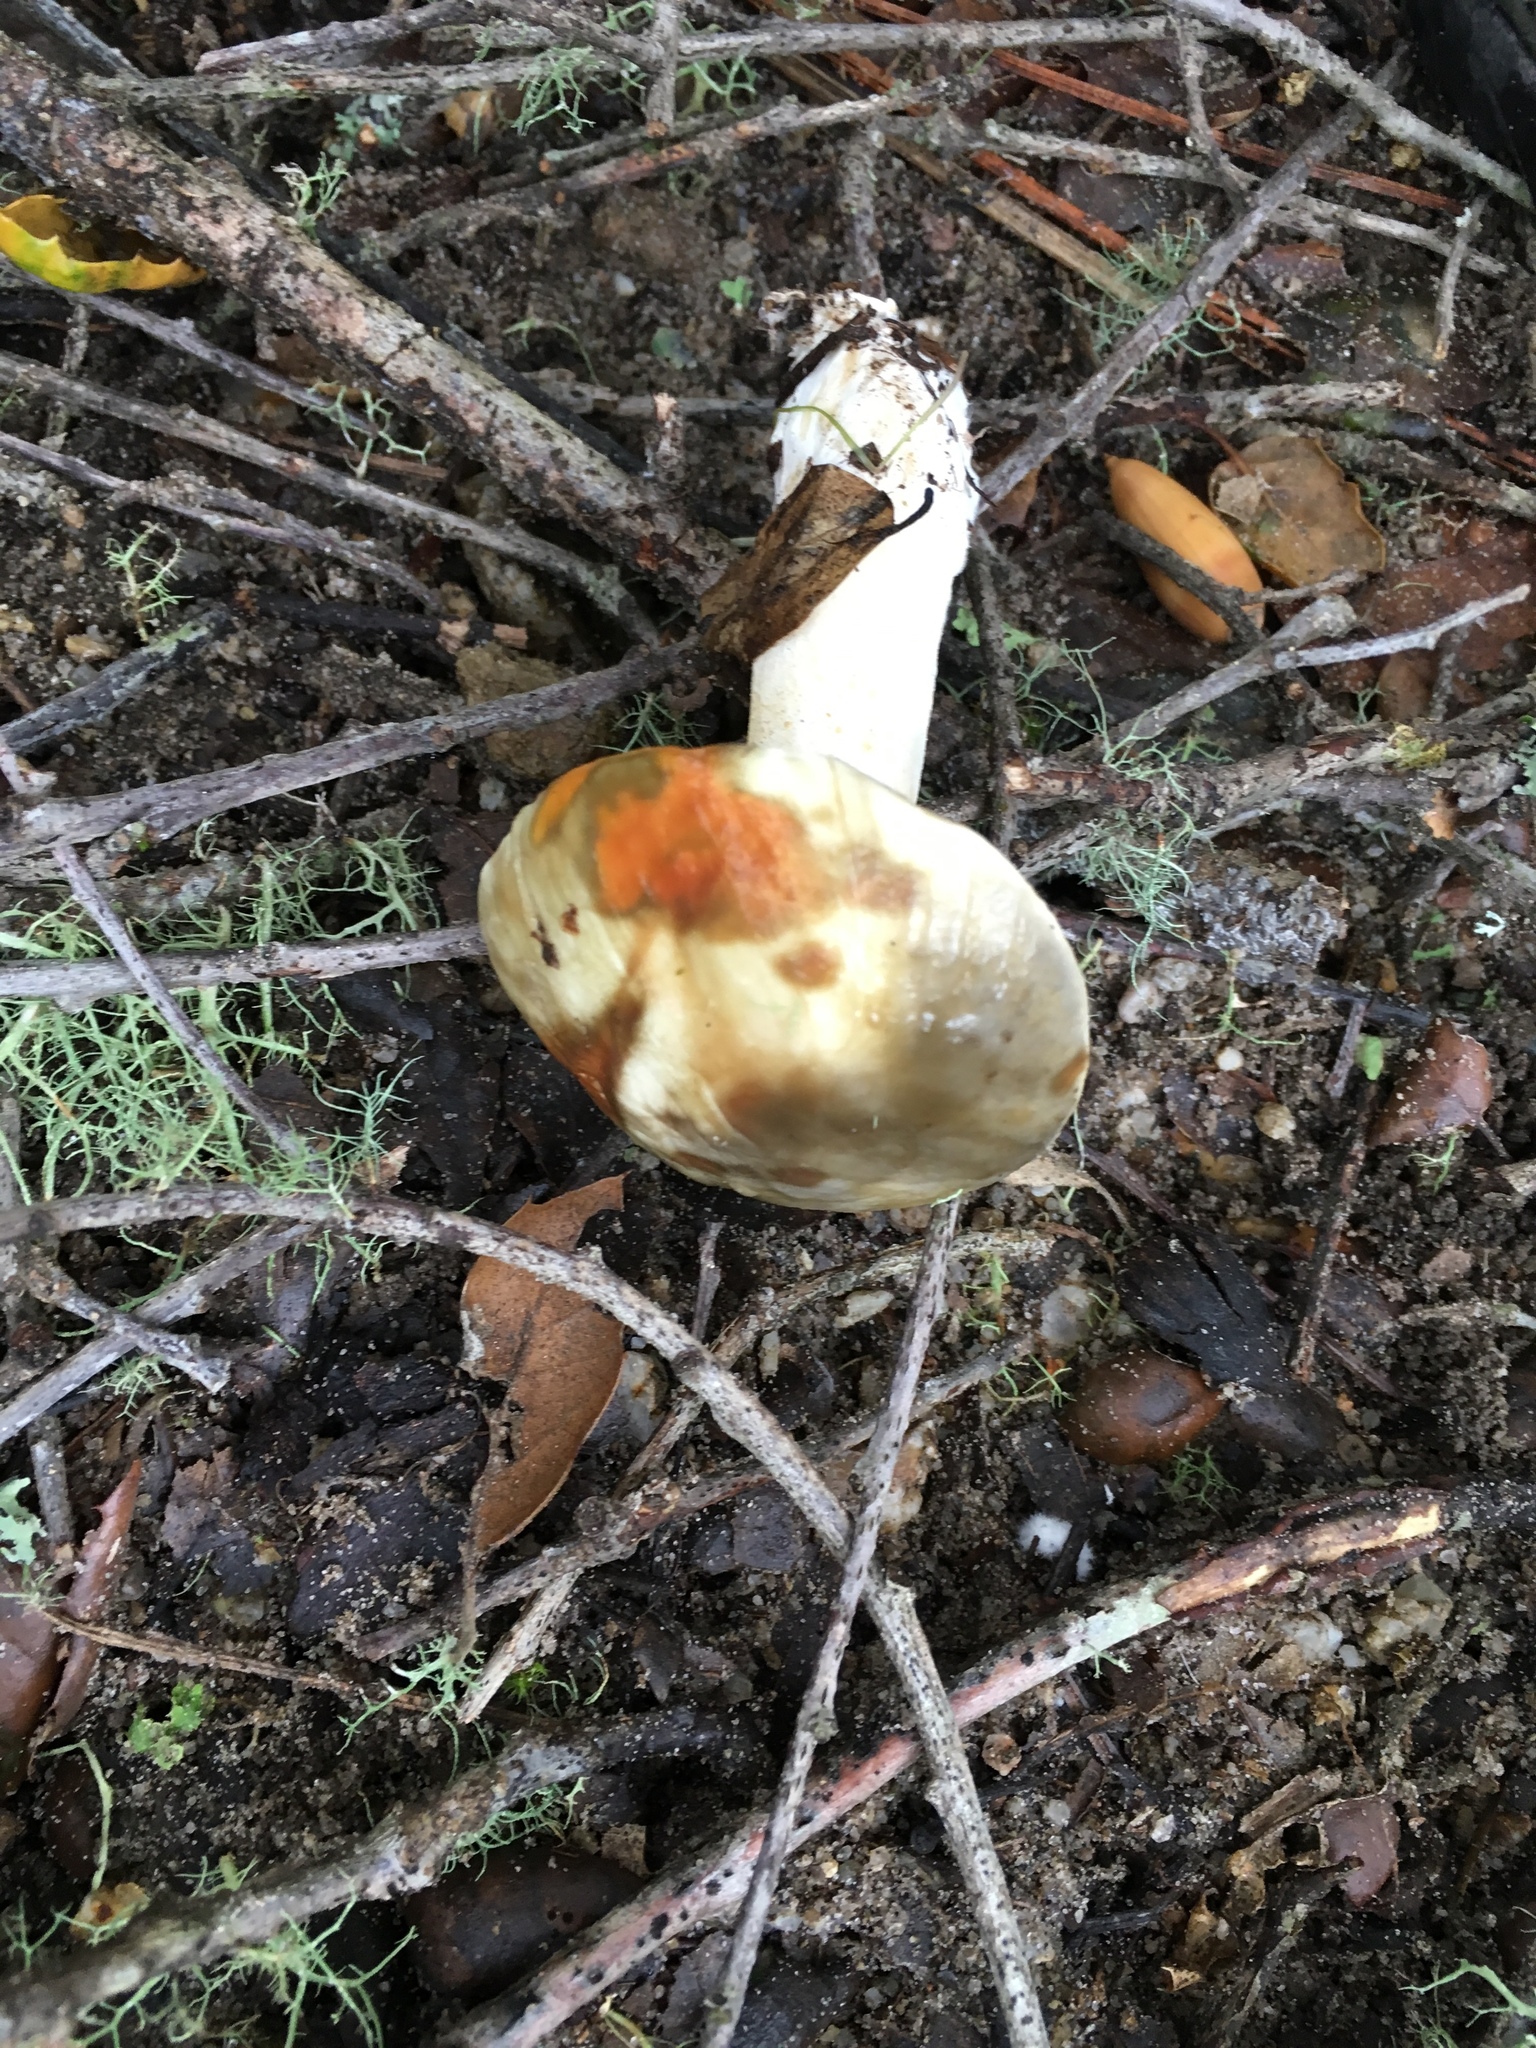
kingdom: Fungi
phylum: Basidiomycota
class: Agaricomycetes
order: Boletales
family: Suillaceae
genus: Suillus
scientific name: Suillus pungens
